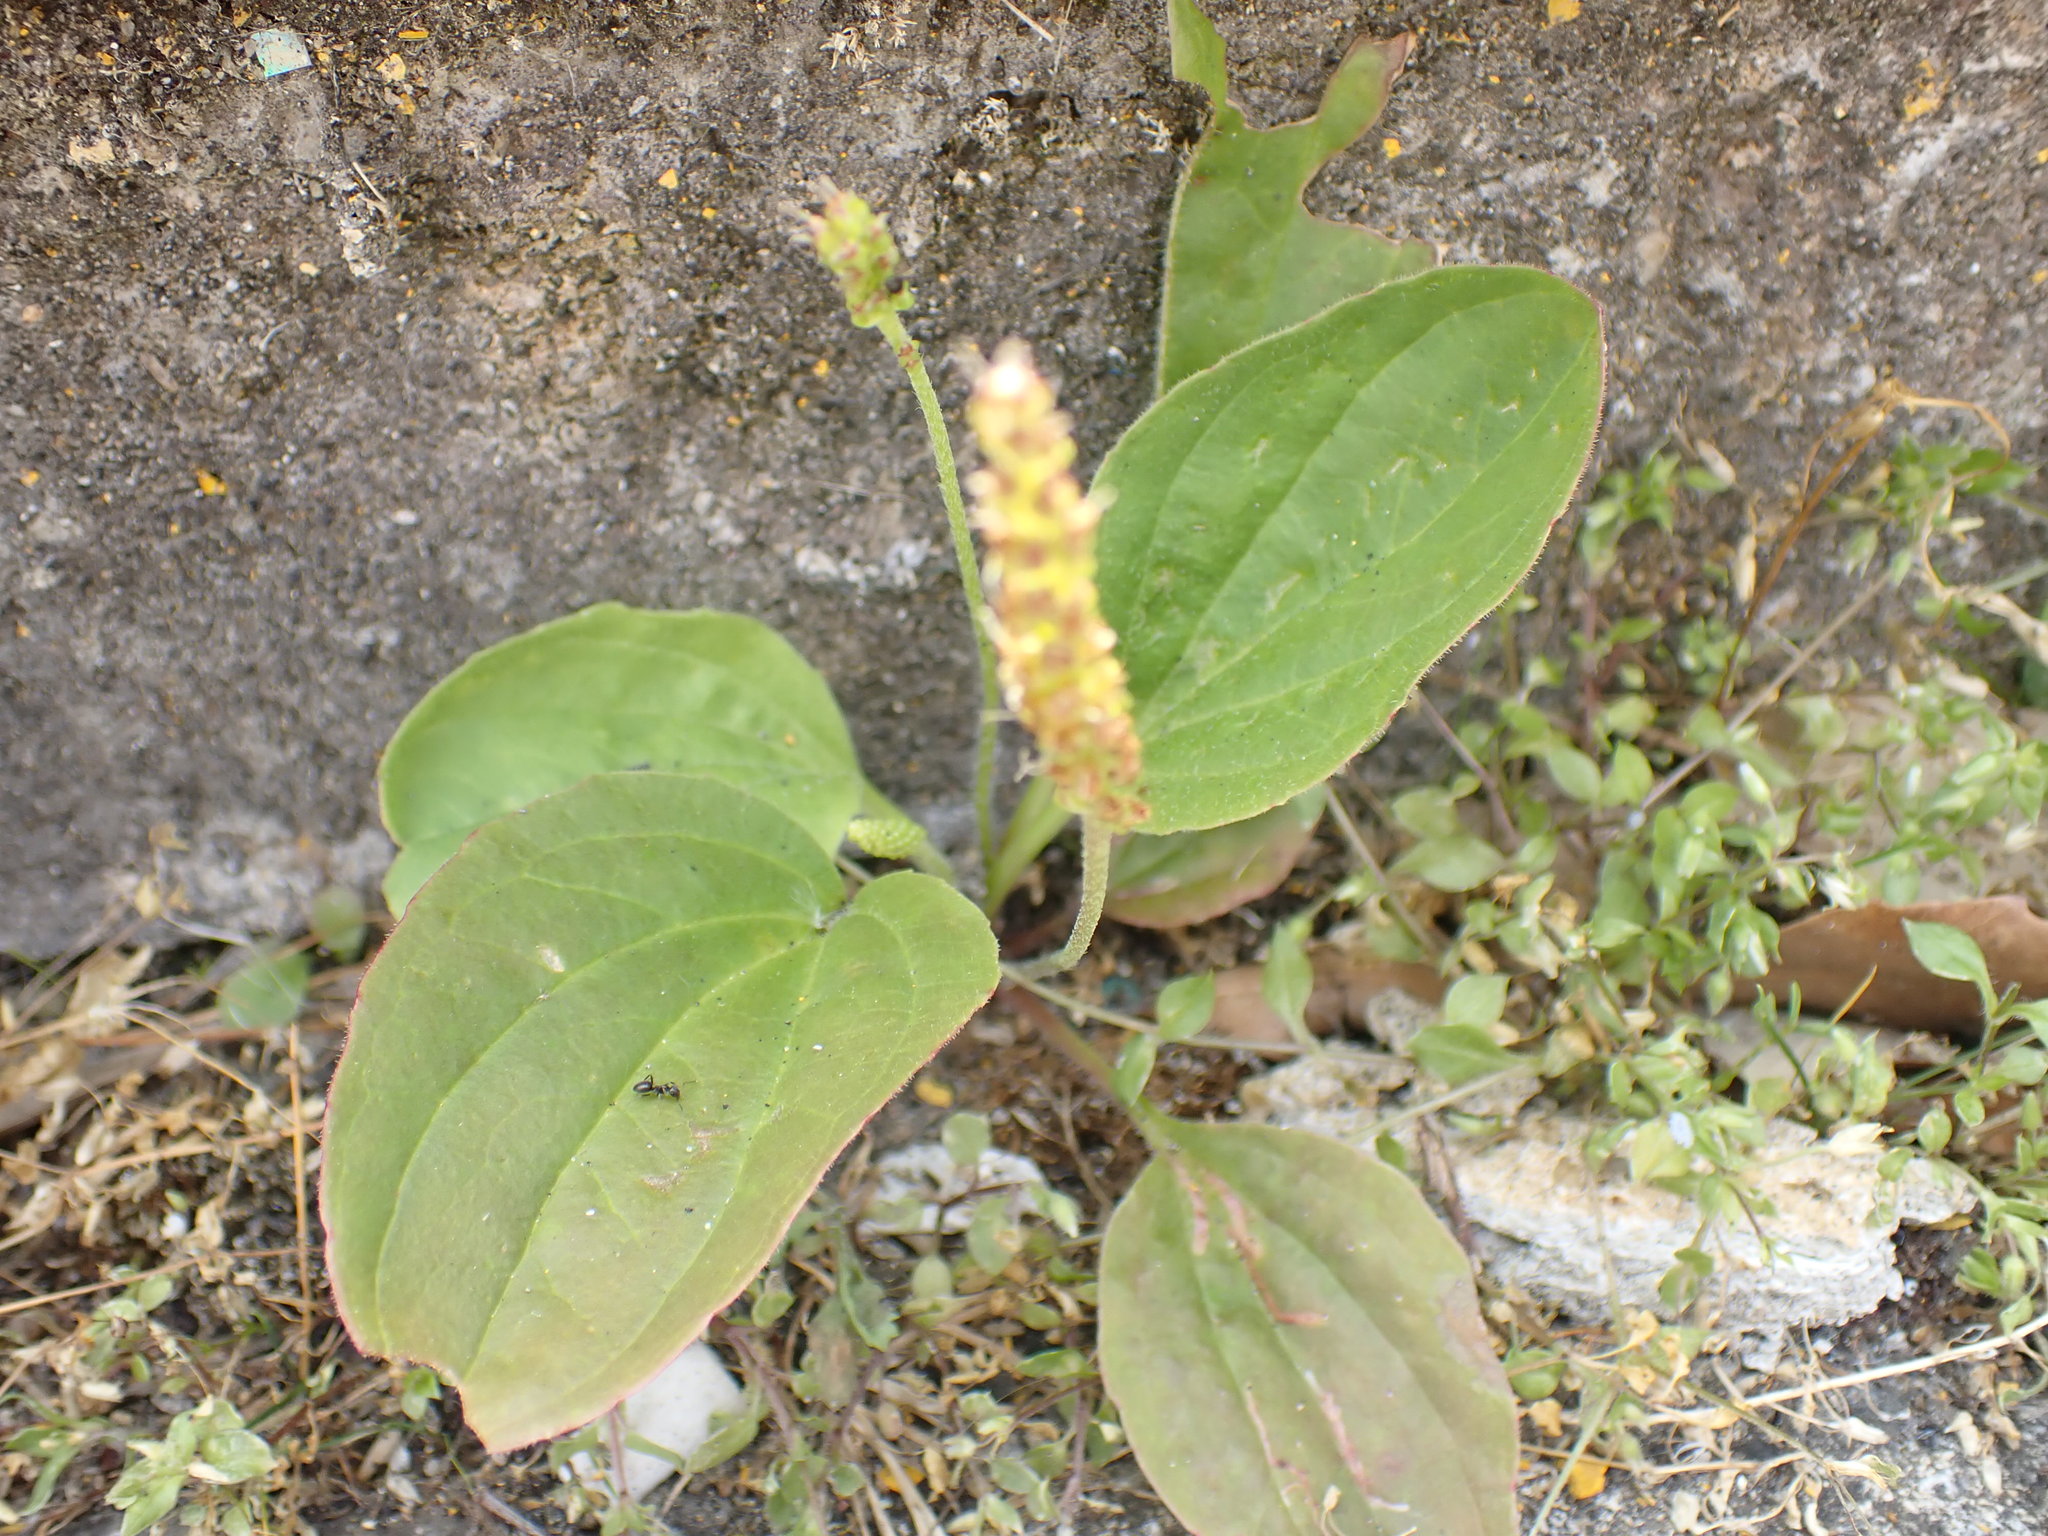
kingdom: Plantae
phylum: Tracheophyta
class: Magnoliopsida
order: Lamiales
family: Plantaginaceae
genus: Plantago
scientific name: Plantago major
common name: Common plantain
